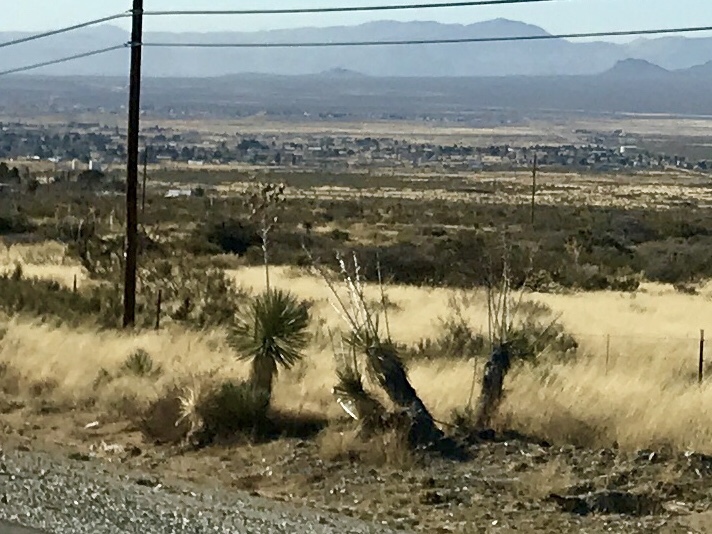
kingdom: Plantae
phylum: Tracheophyta
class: Liliopsida
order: Asparagales
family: Asparagaceae
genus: Yucca
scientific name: Yucca elata
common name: Palmella
